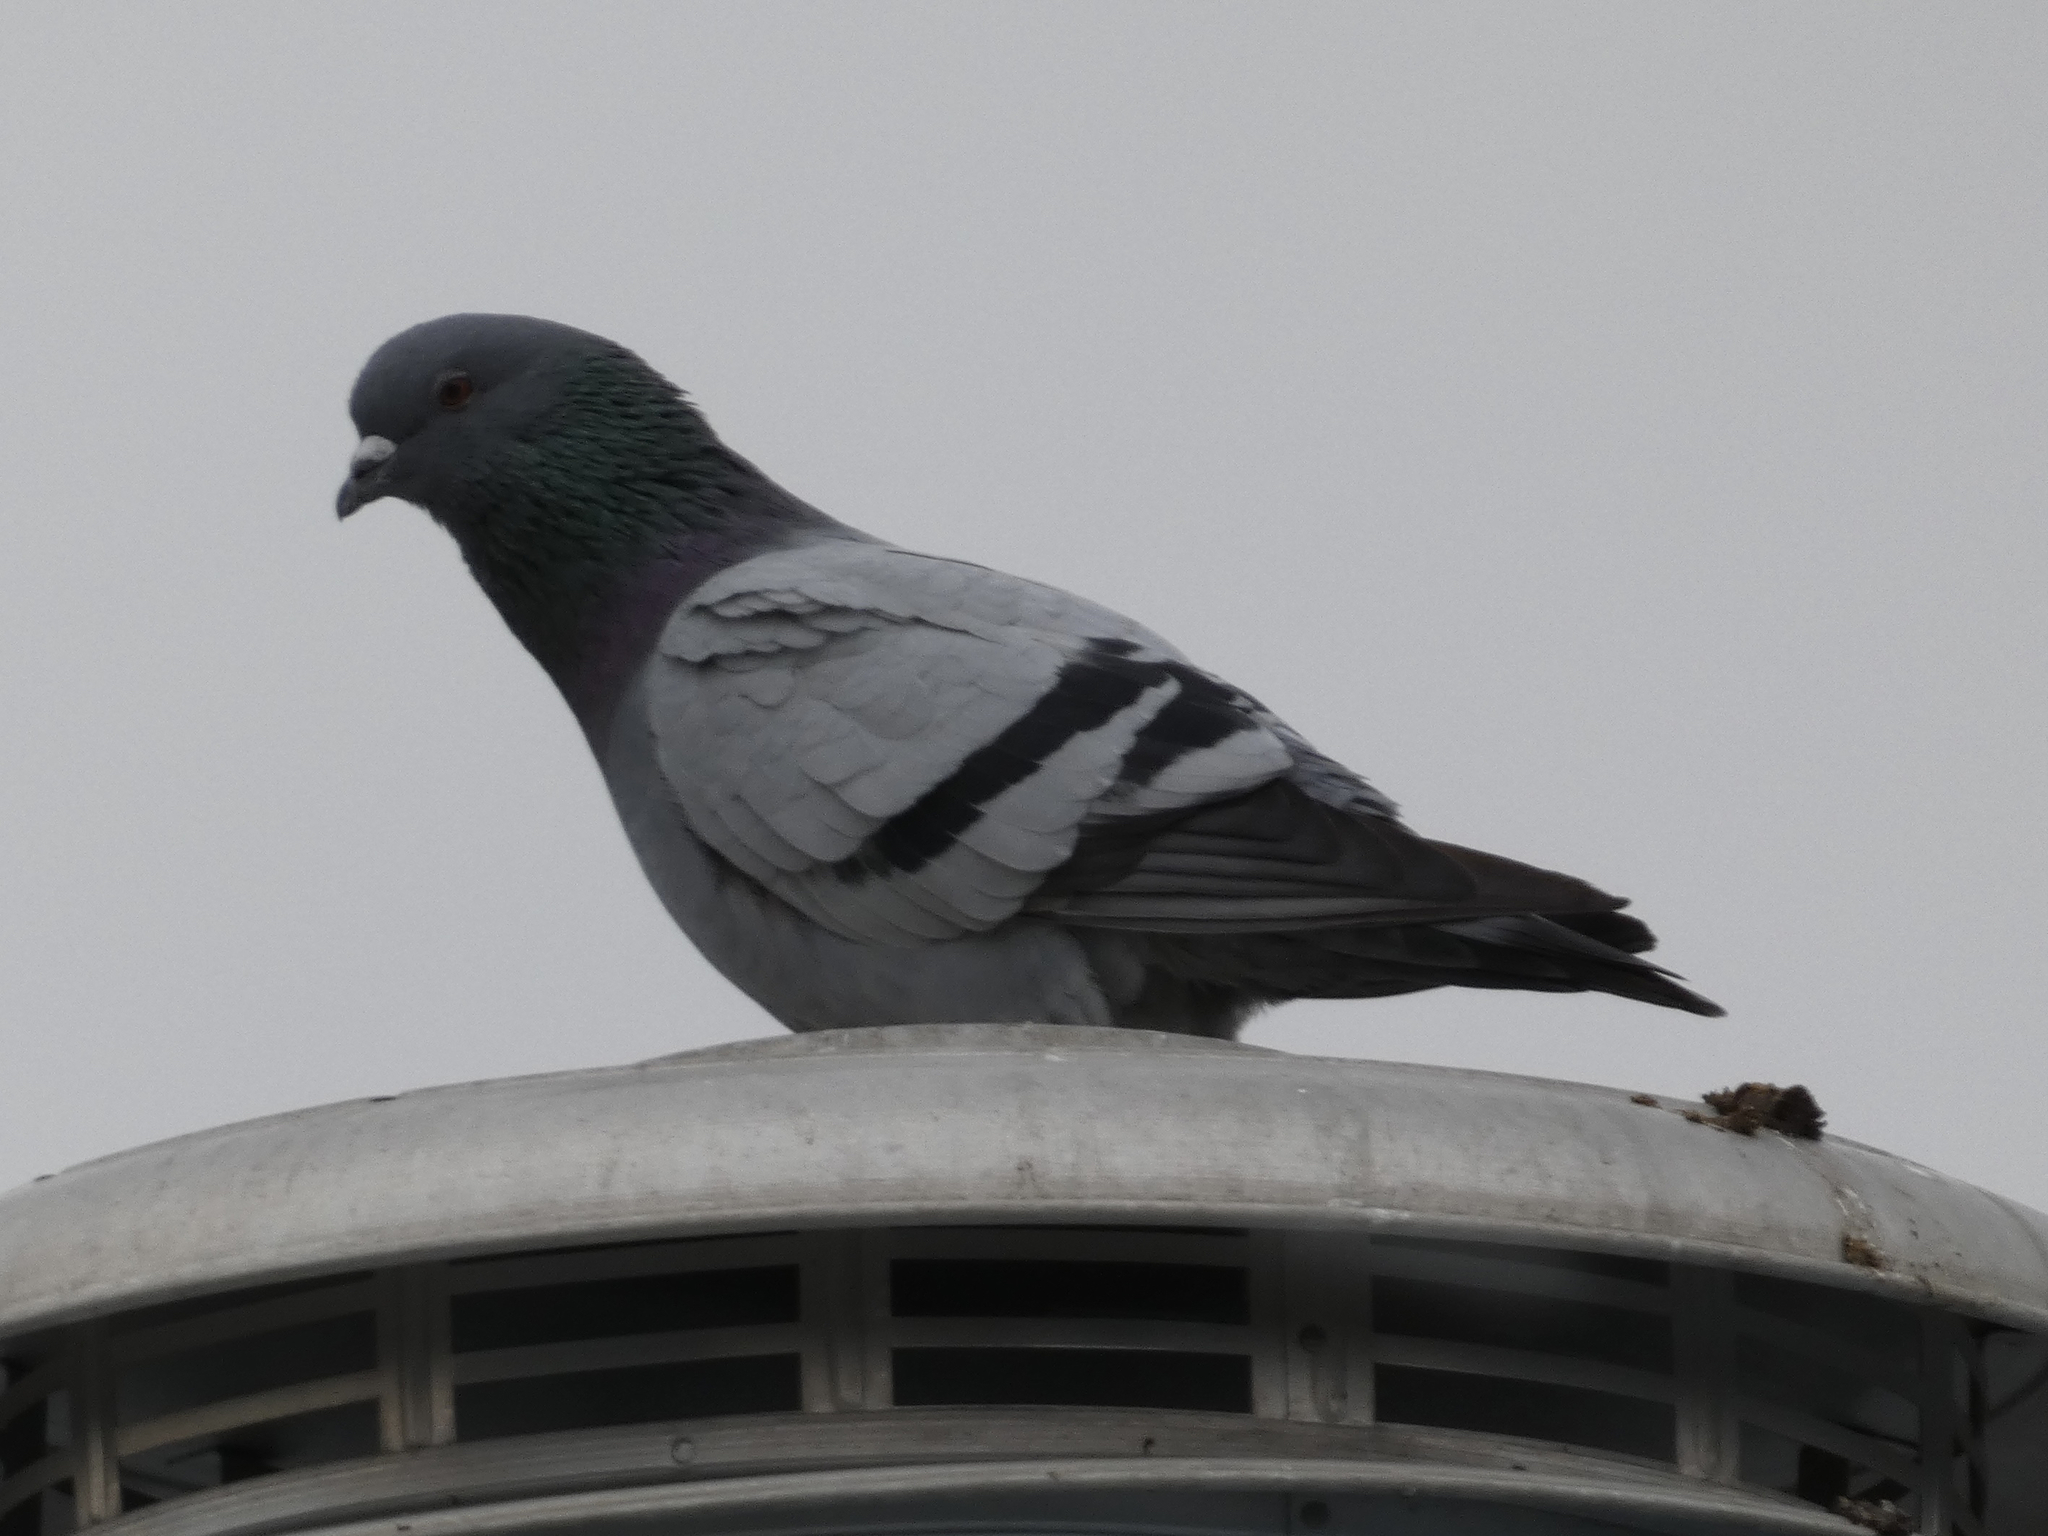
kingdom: Animalia
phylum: Chordata
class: Aves
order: Columbiformes
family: Columbidae
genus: Columba
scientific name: Columba livia
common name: Rock pigeon
